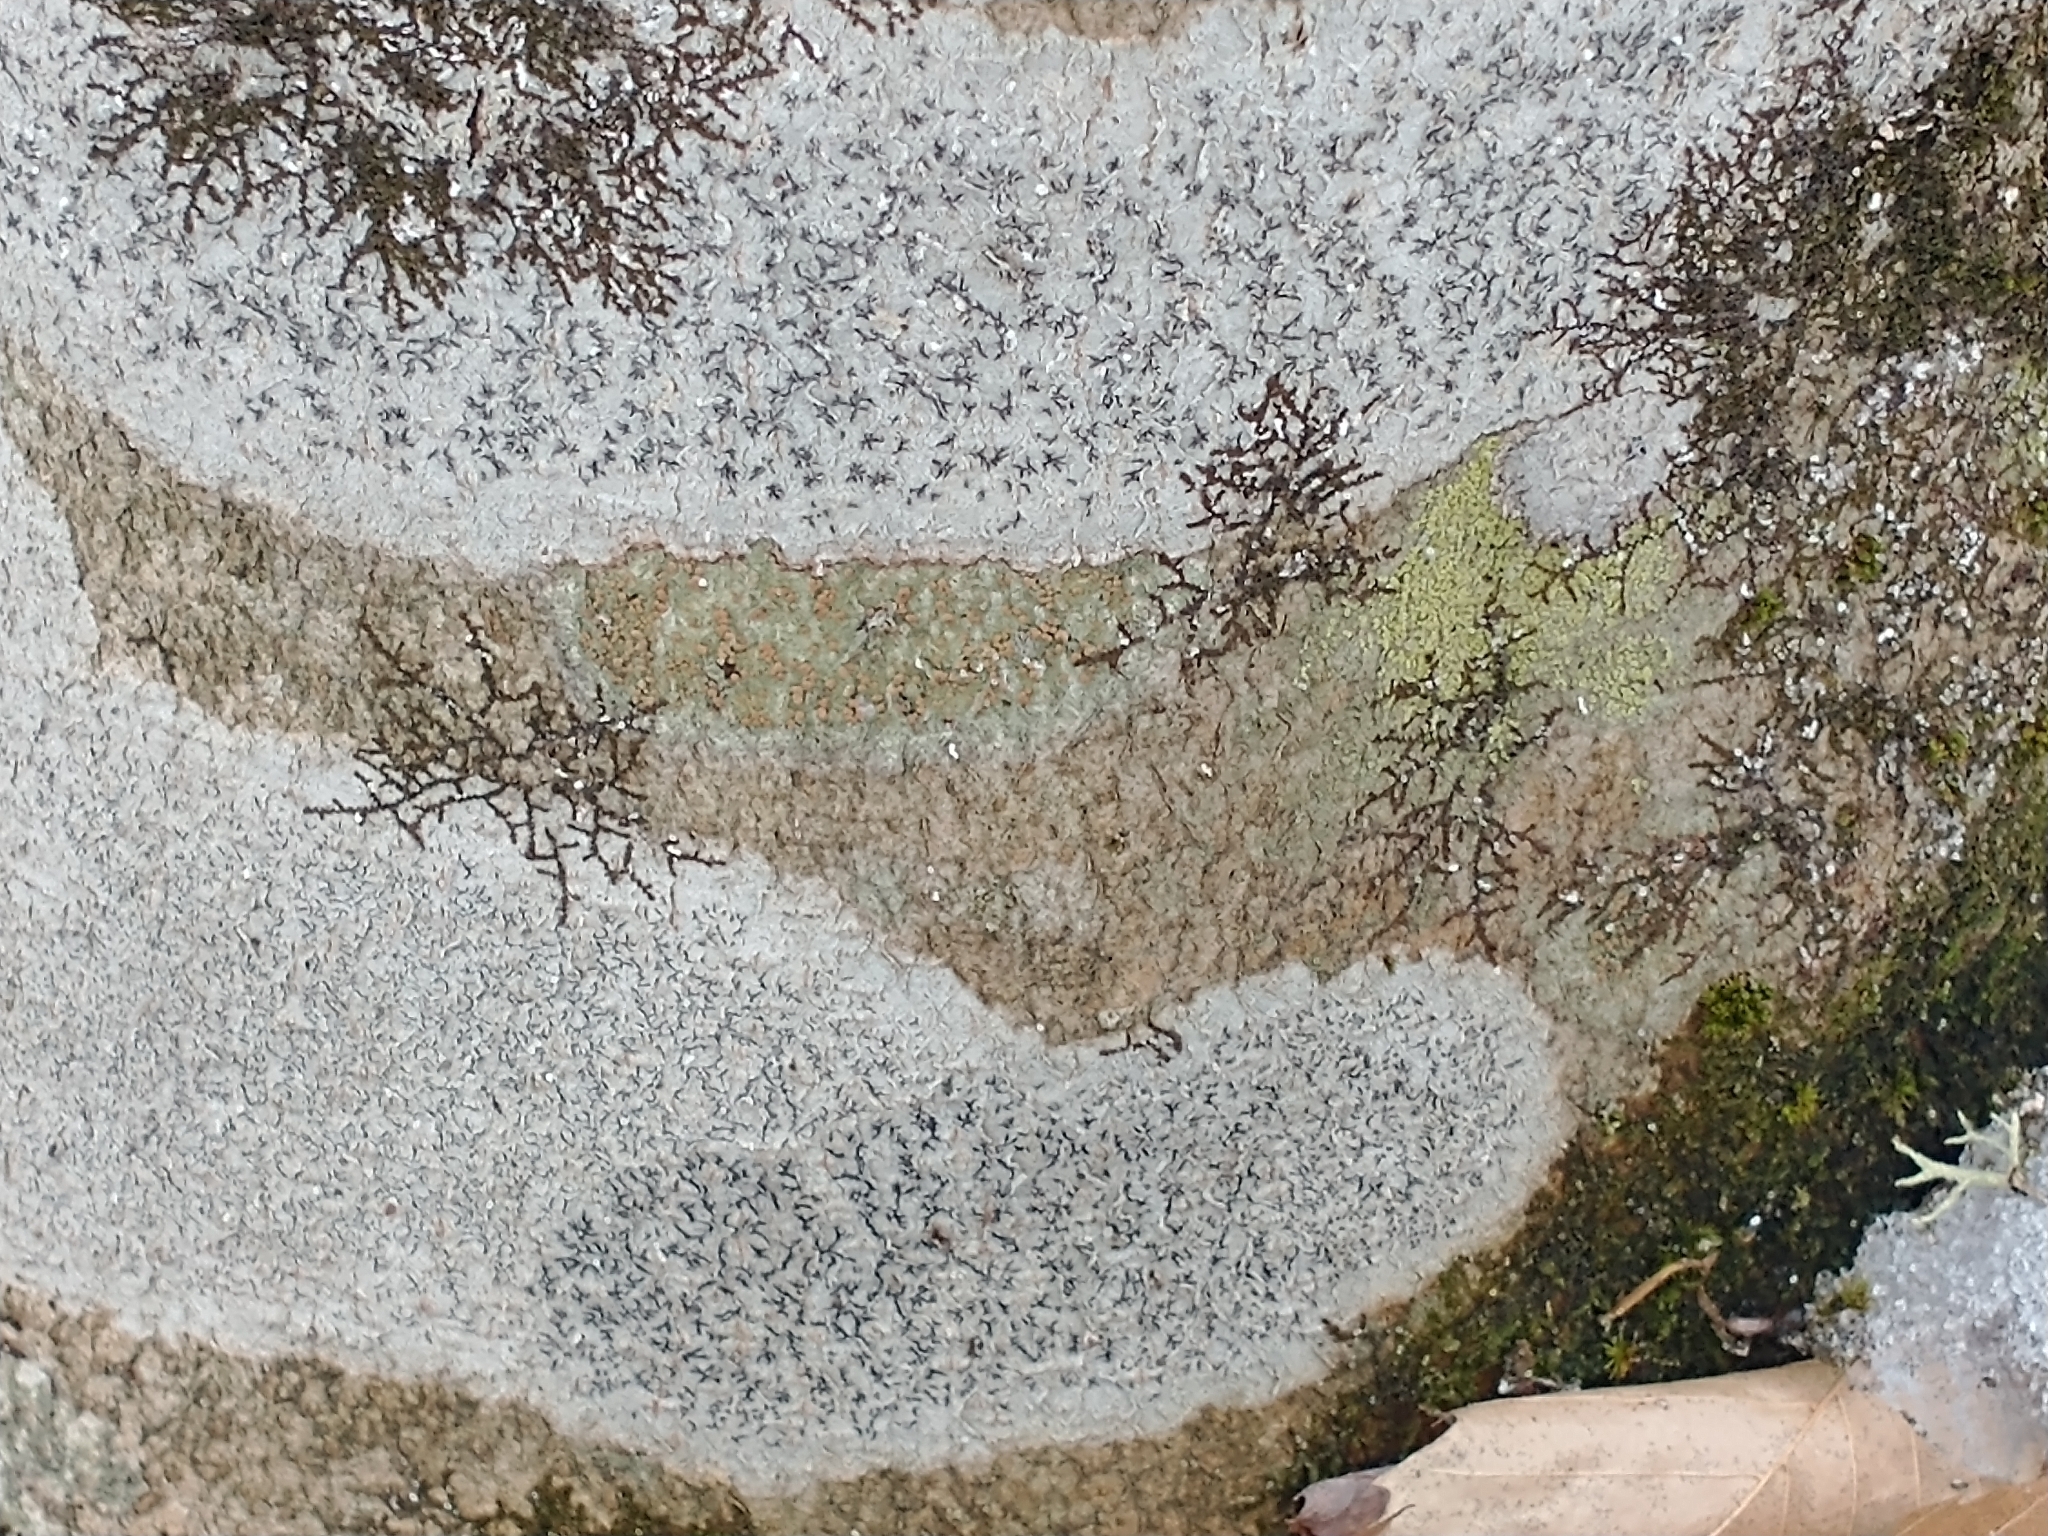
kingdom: Fungi
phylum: Ascomycota
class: Lecanoromycetes
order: Ostropales
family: Graphidaceae
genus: Graphis
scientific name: Graphis scripta
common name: Script lichen
